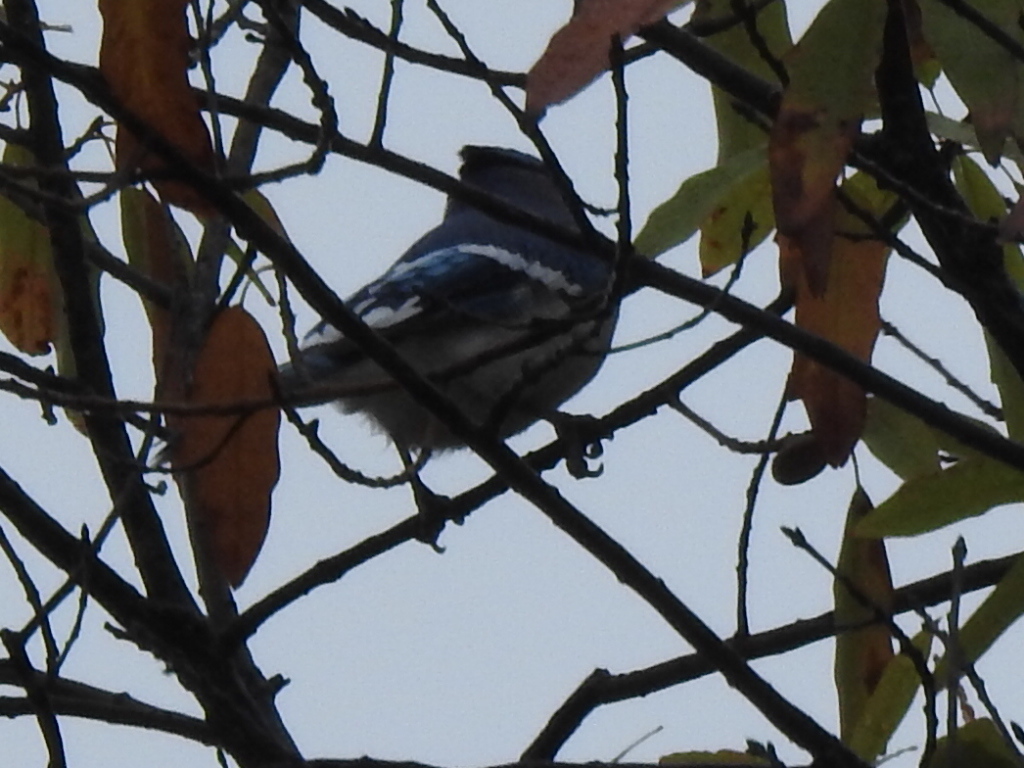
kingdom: Animalia
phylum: Chordata
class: Aves
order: Passeriformes
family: Corvidae
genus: Cyanocitta
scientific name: Cyanocitta cristata
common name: Blue jay
